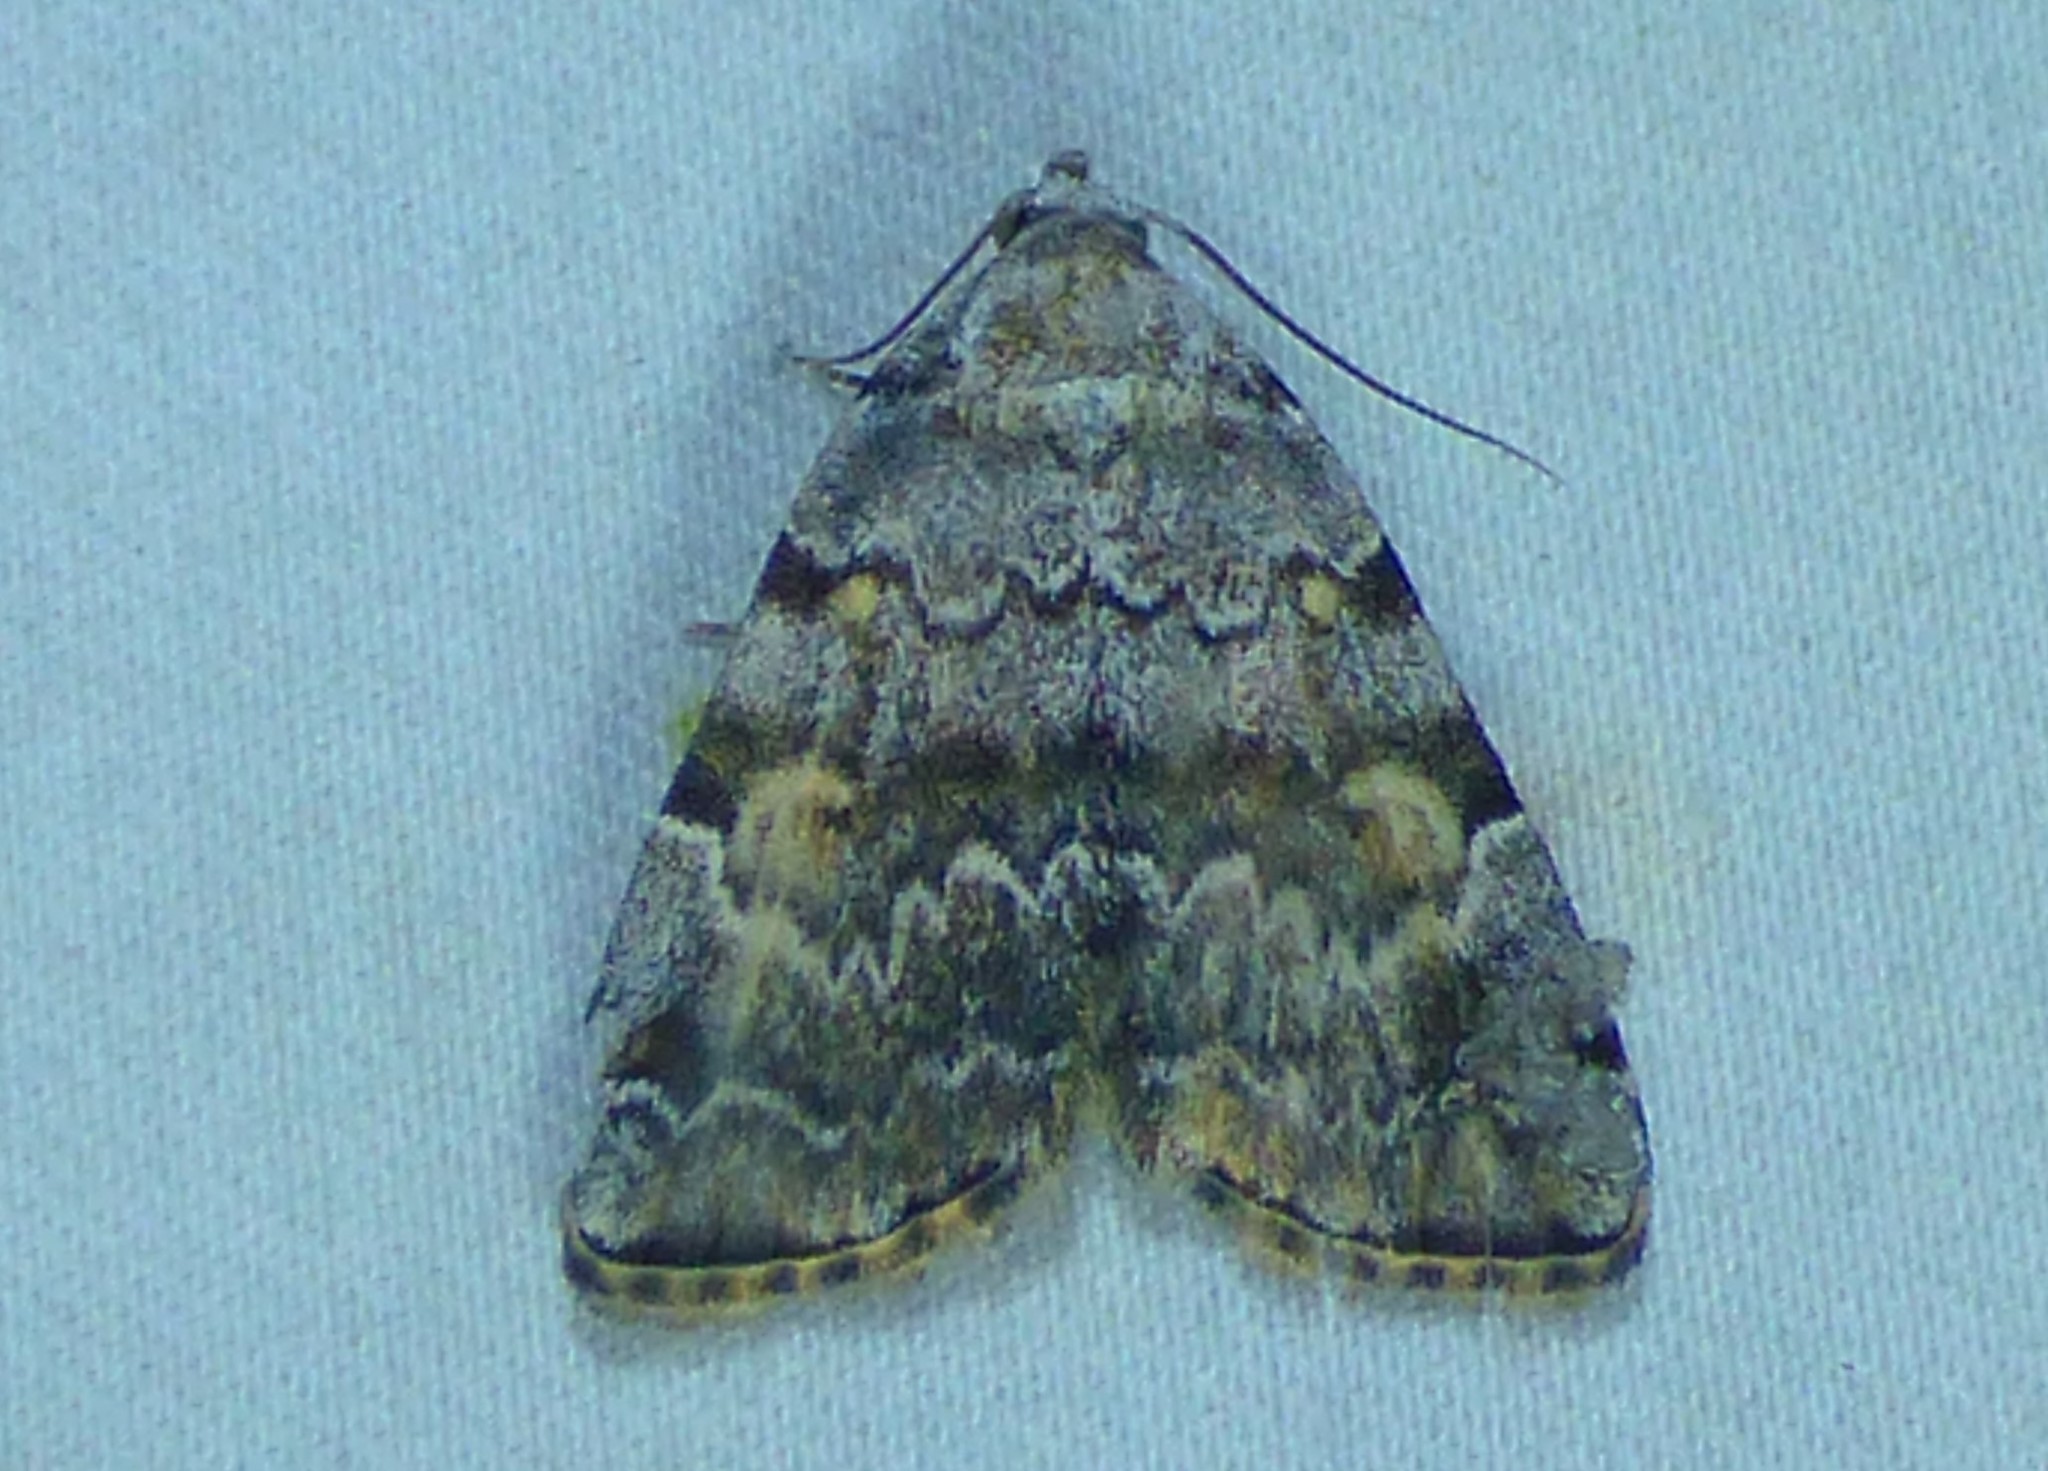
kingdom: Animalia
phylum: Arthropoda
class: Insecta
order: Lepidoptera
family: Erebidae
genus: Idia
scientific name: Idia americalis
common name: American idia moth
